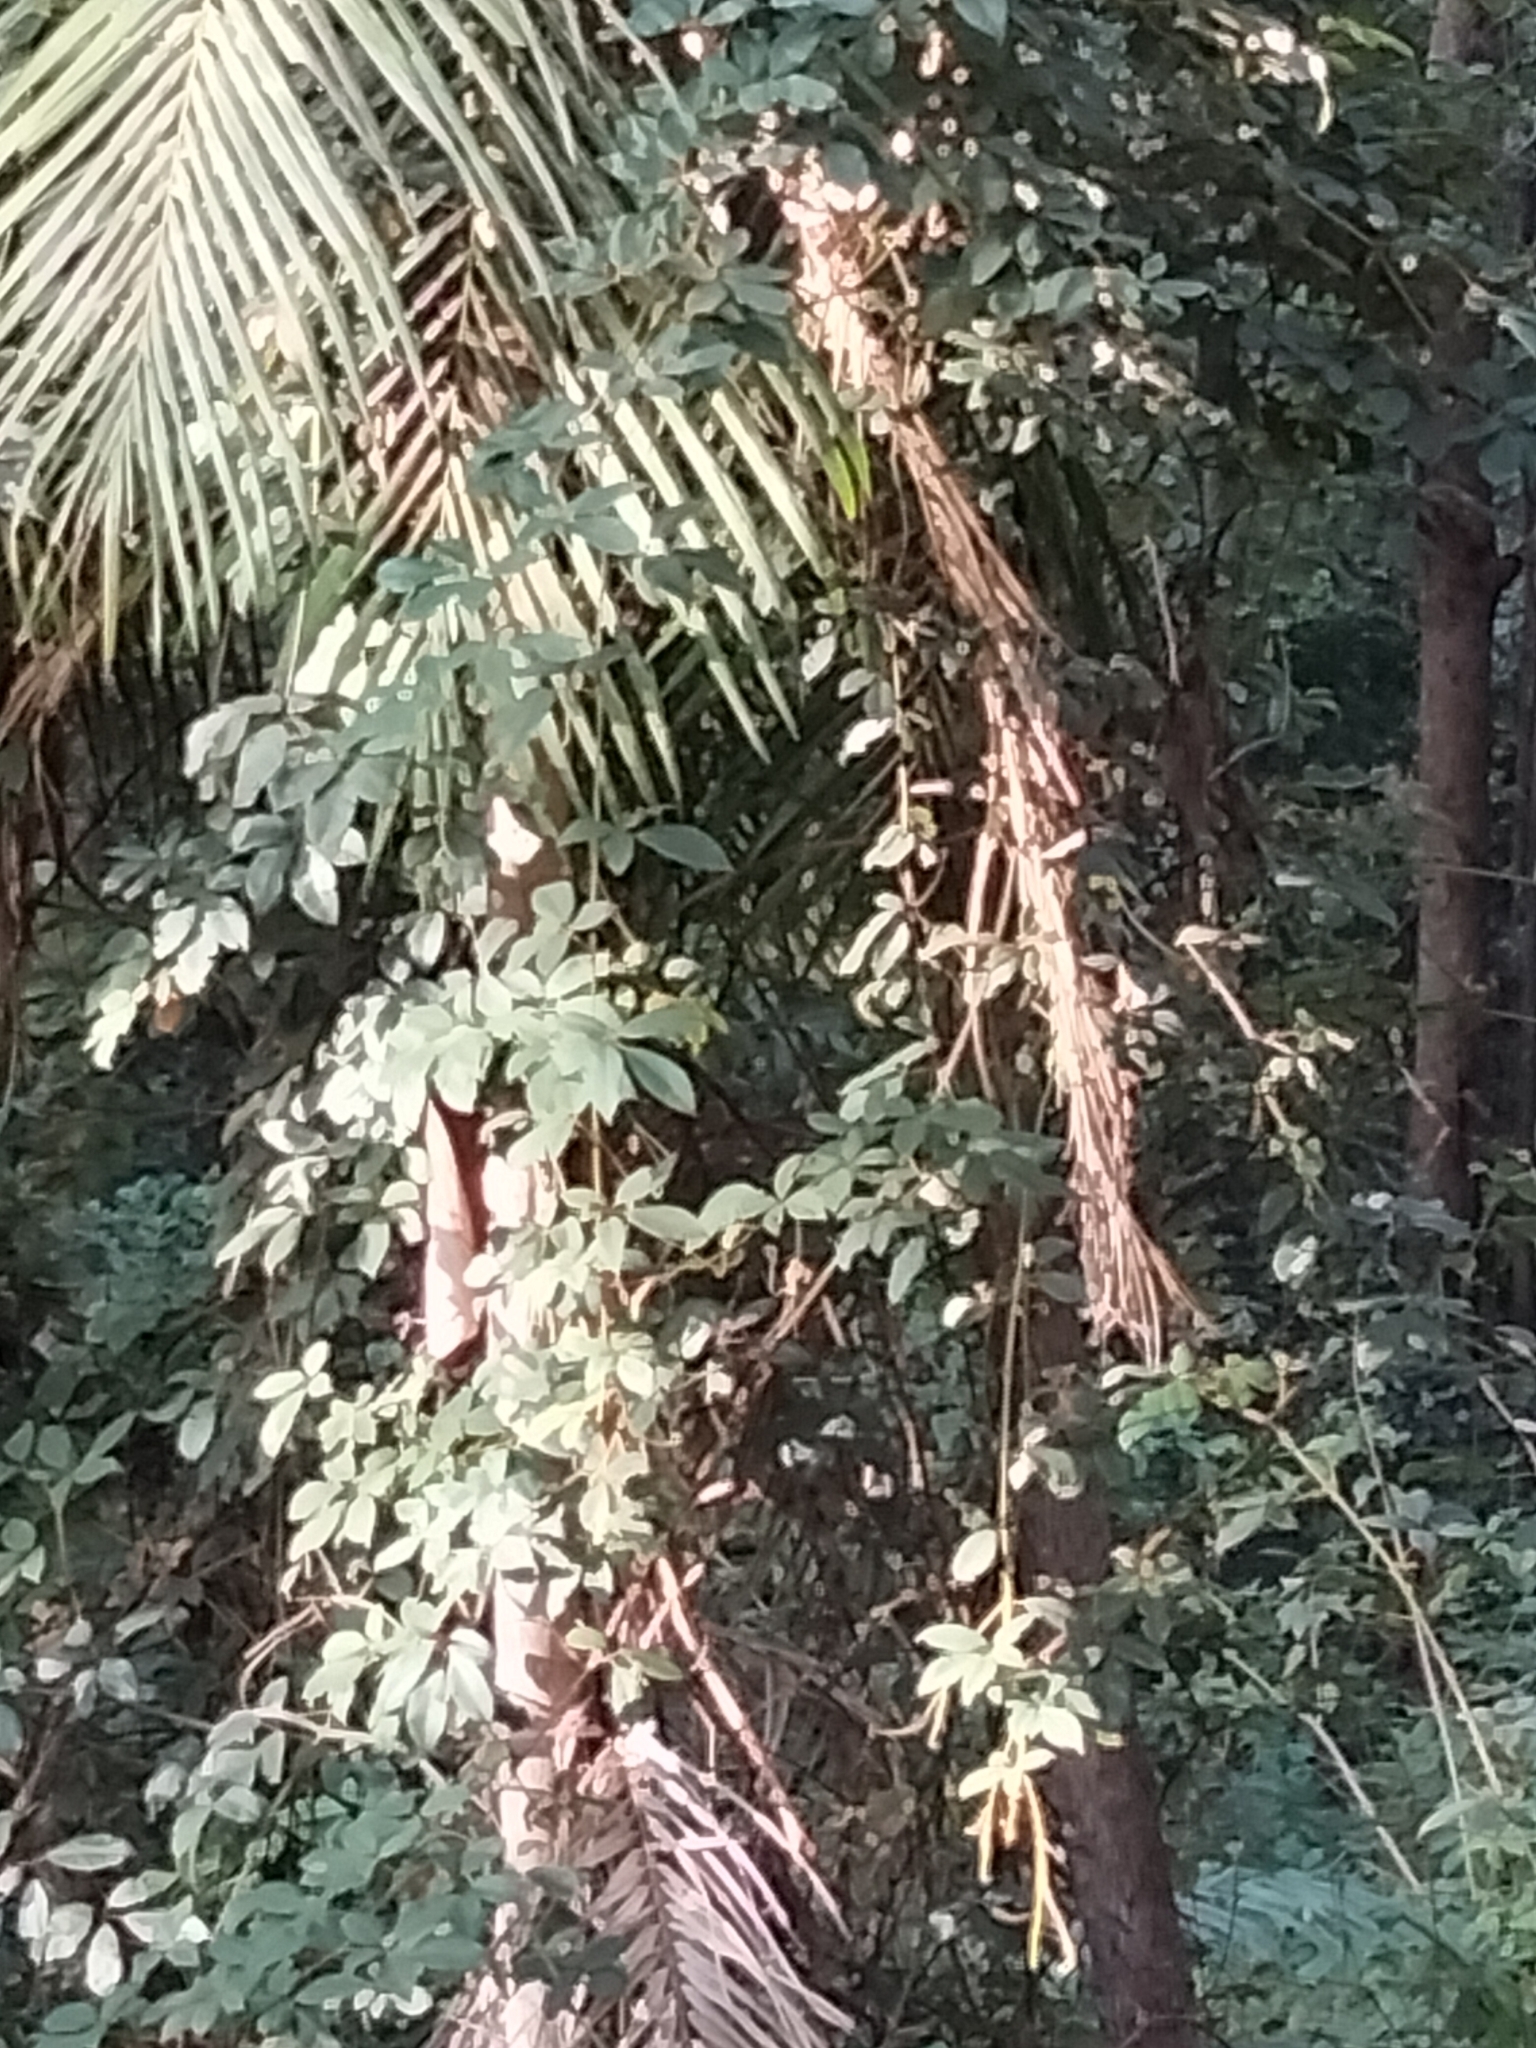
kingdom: Plantae
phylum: Tracheophyta
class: Magnoliopsida
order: Vitales
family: Vitaceae
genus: Nothocissus
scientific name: Nothocissus hypoglauca
